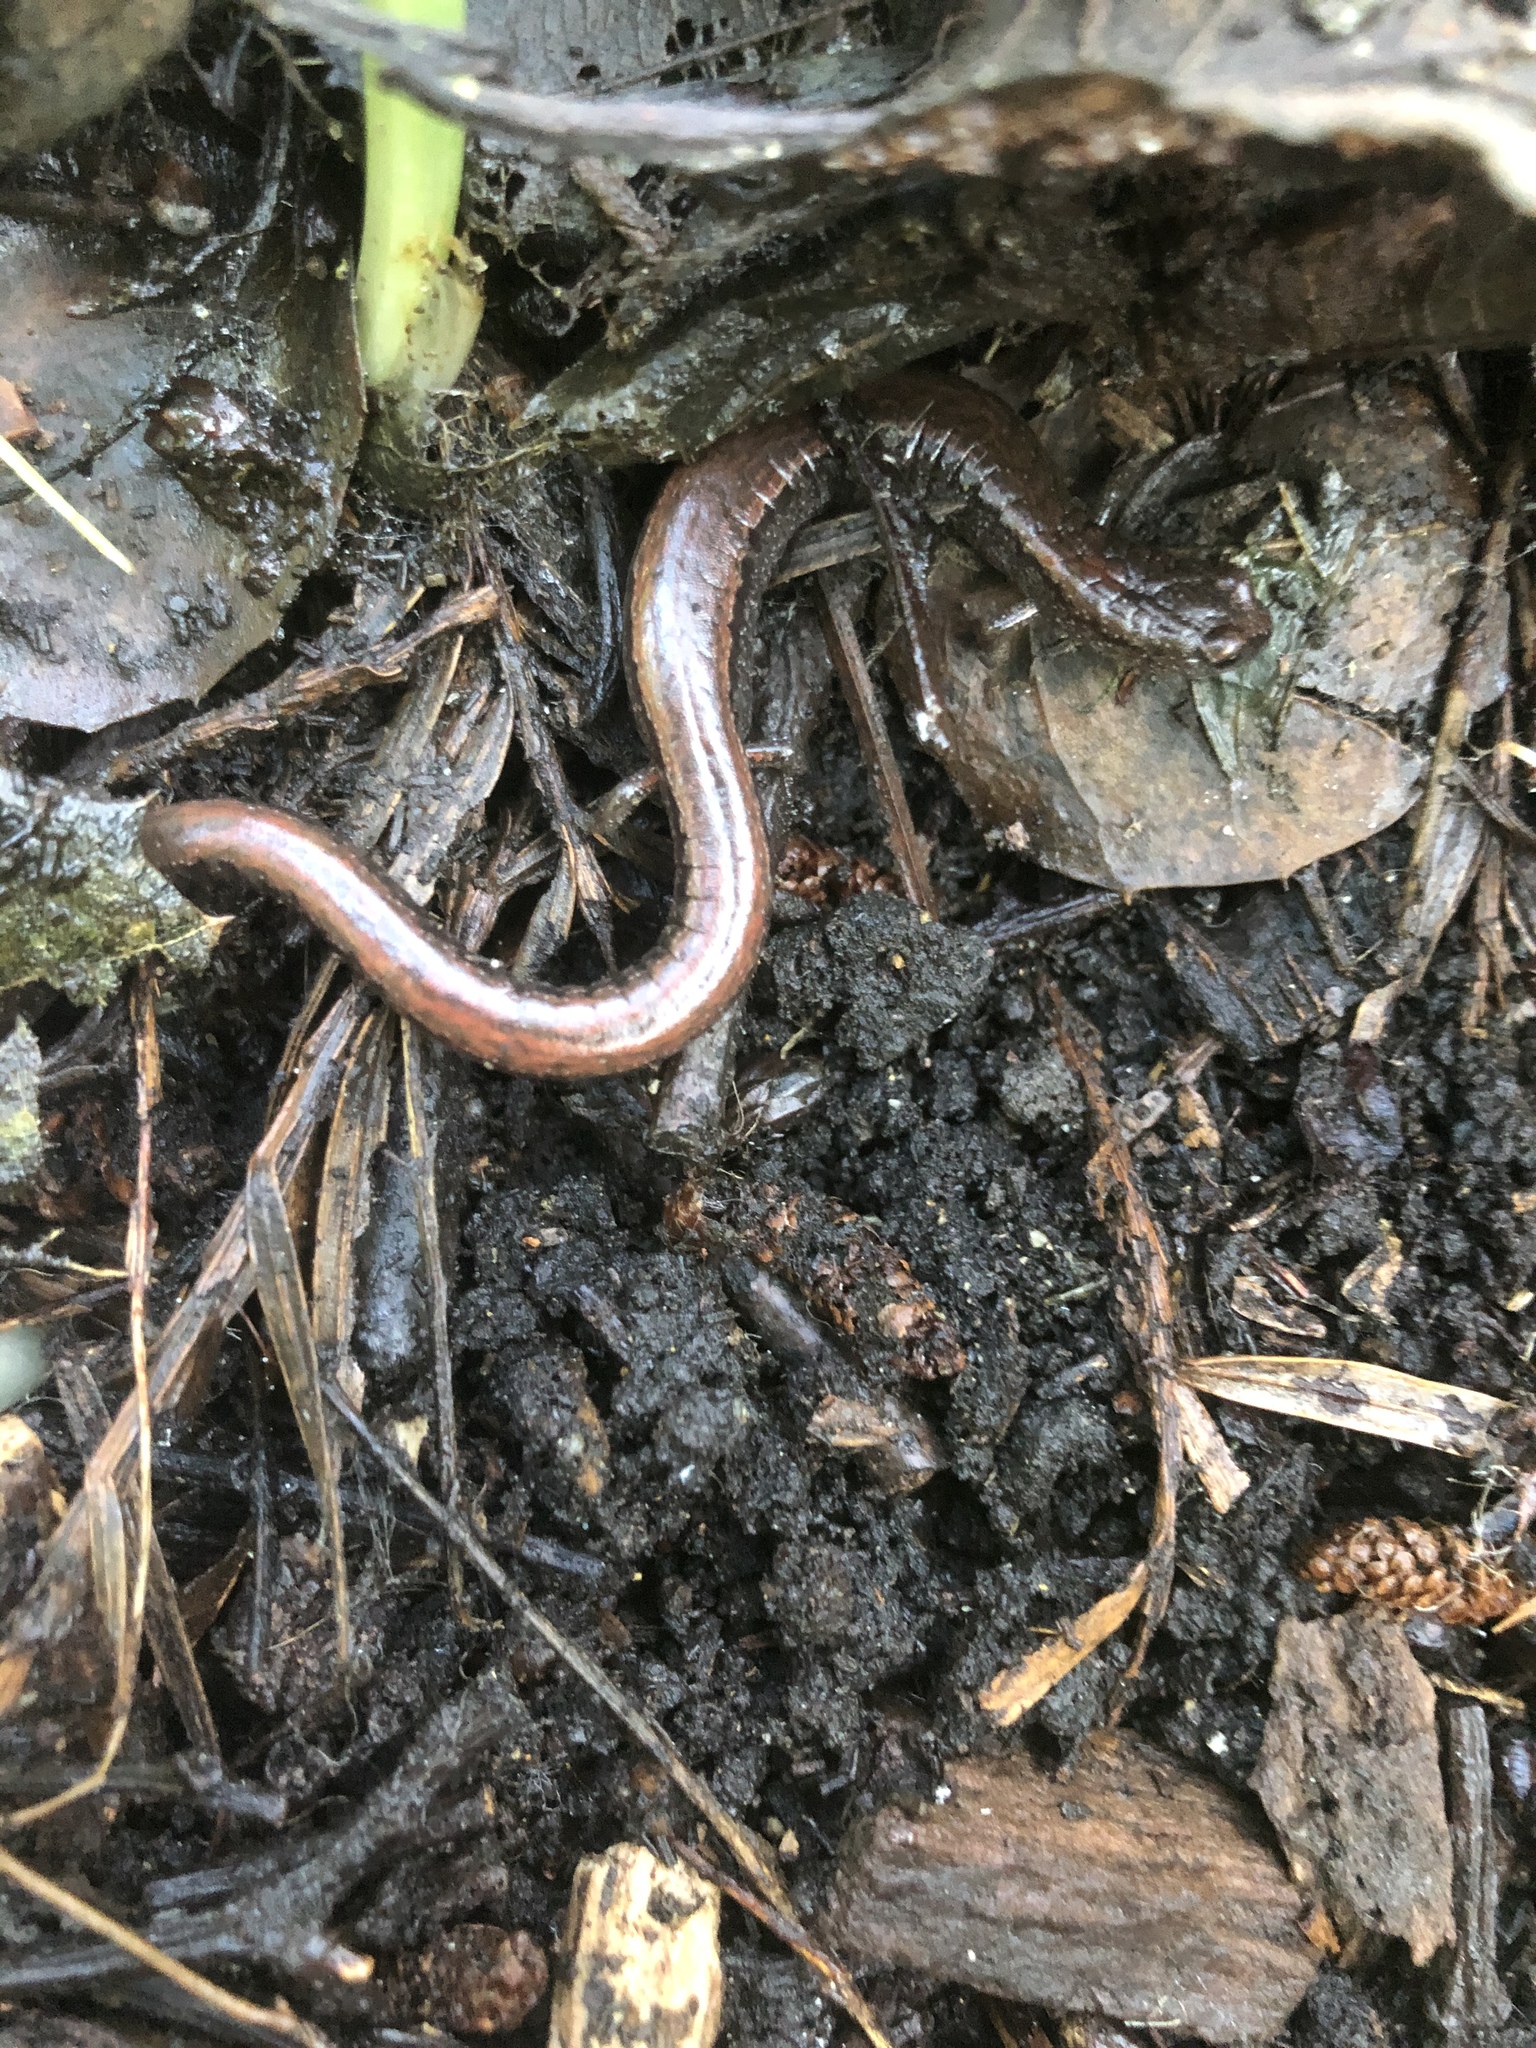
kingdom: Animalia
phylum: Chordata
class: Amphibia
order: Caudata
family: Plethodontidae
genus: Batrachoseps
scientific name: Batrachoseps attenuatus
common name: California slender salamander
